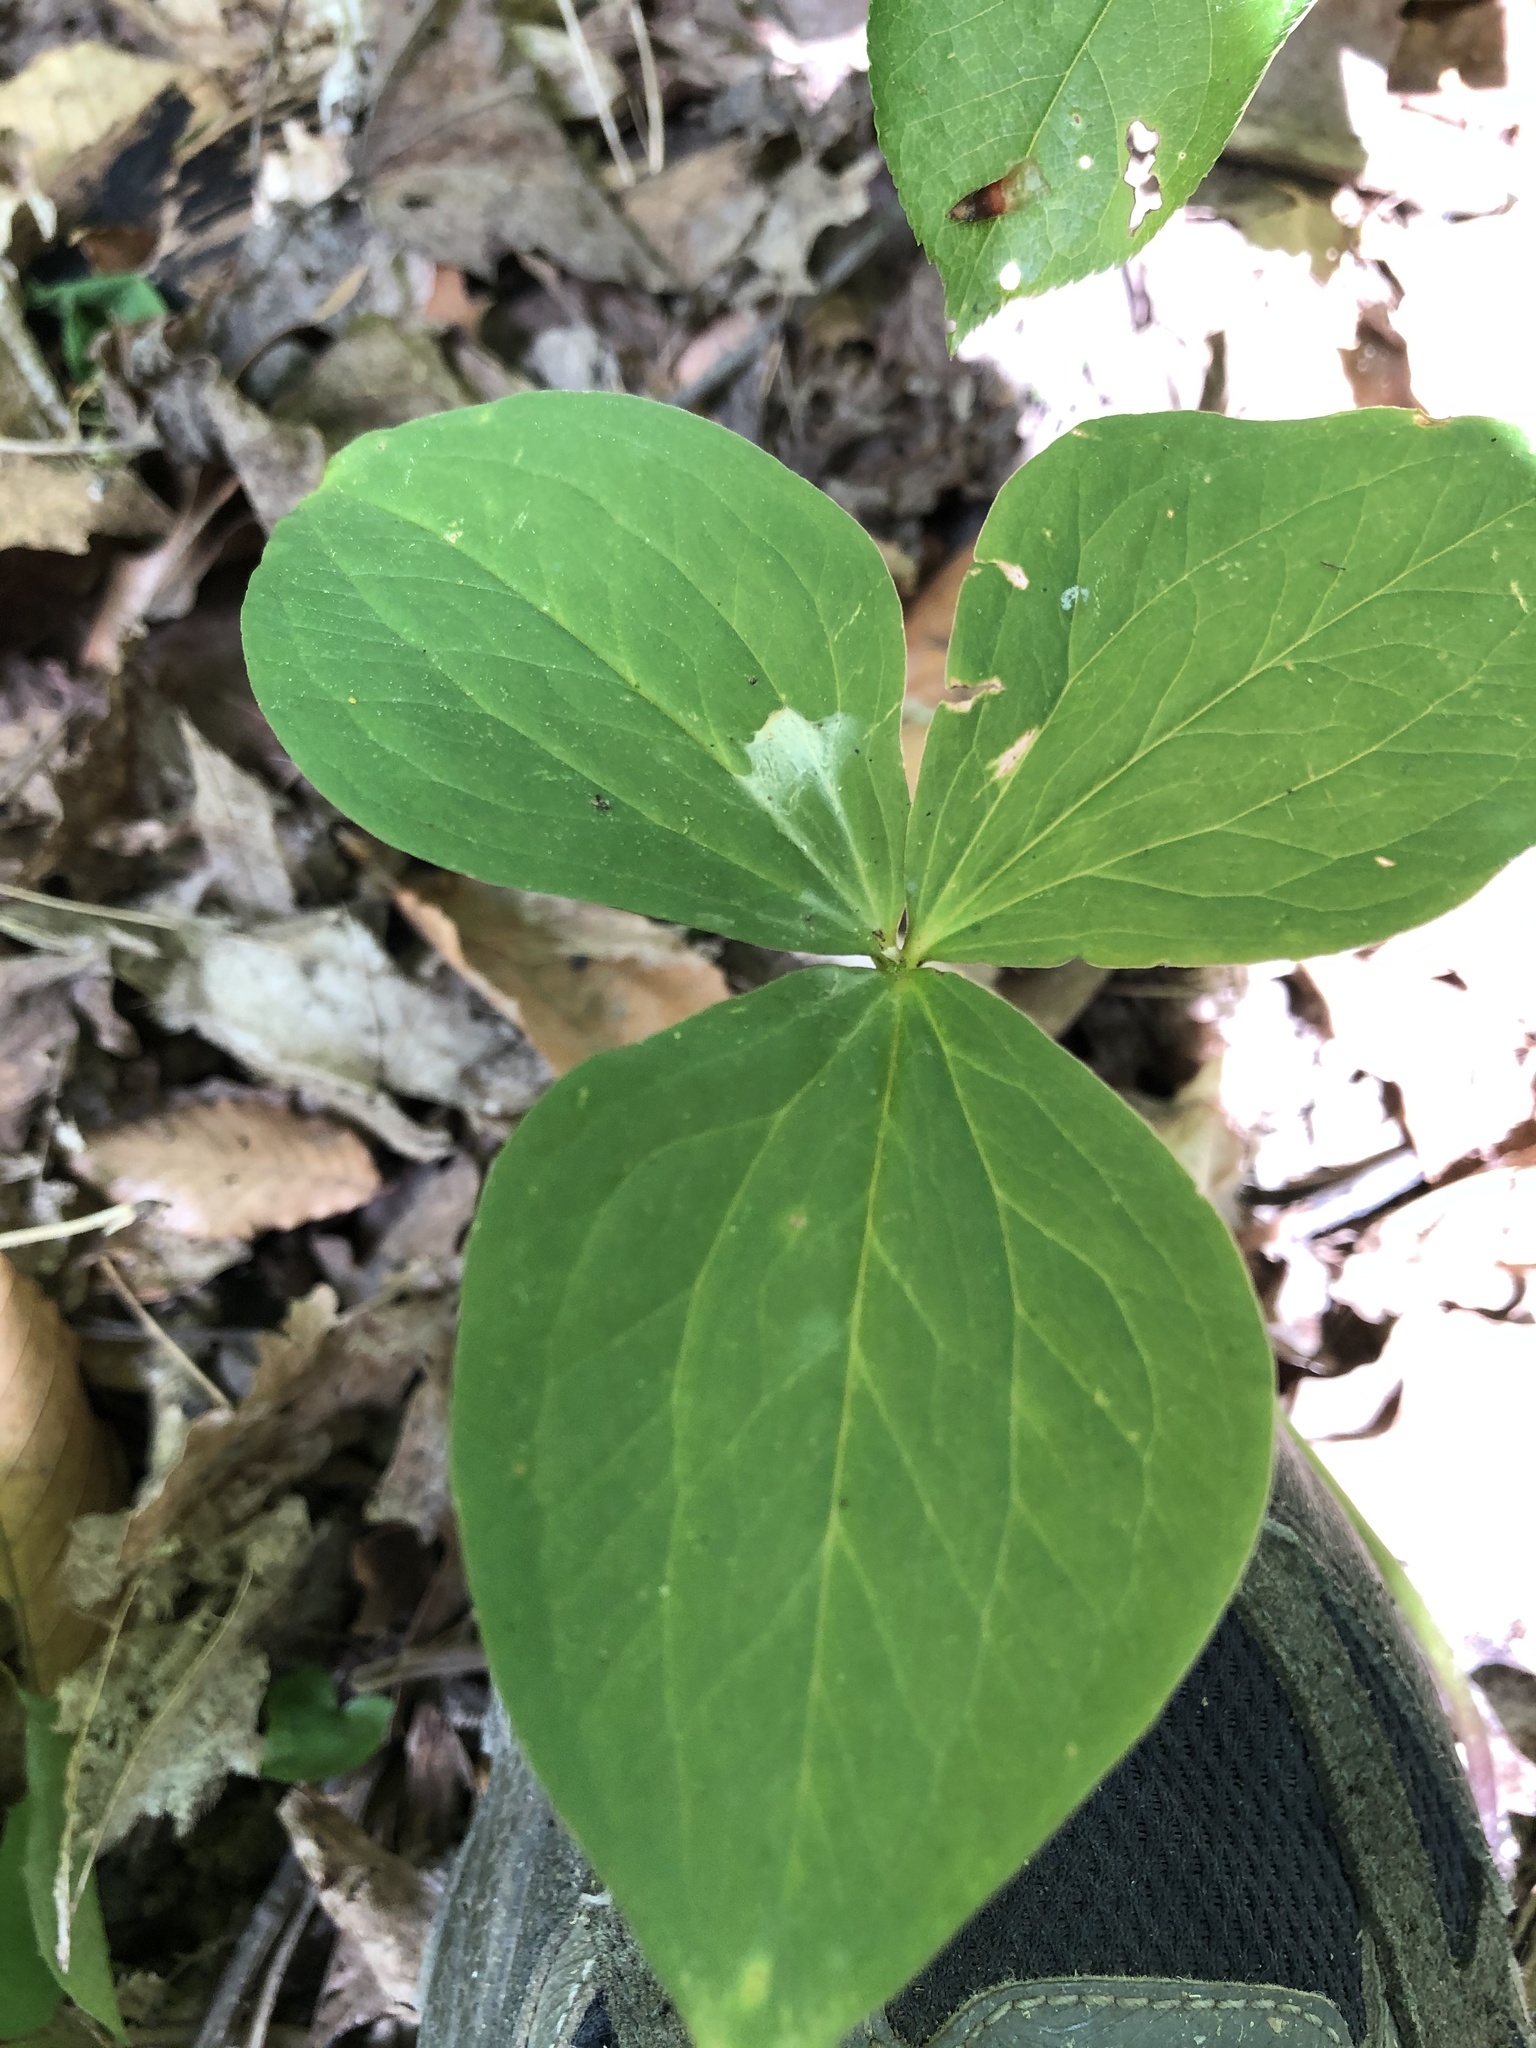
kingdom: Plantae
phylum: Tracheophyta
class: Liliopsida
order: Liliales
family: Melanthiaceae
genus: Trillium
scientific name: Trillium grandiflorum
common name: Great white trillium
